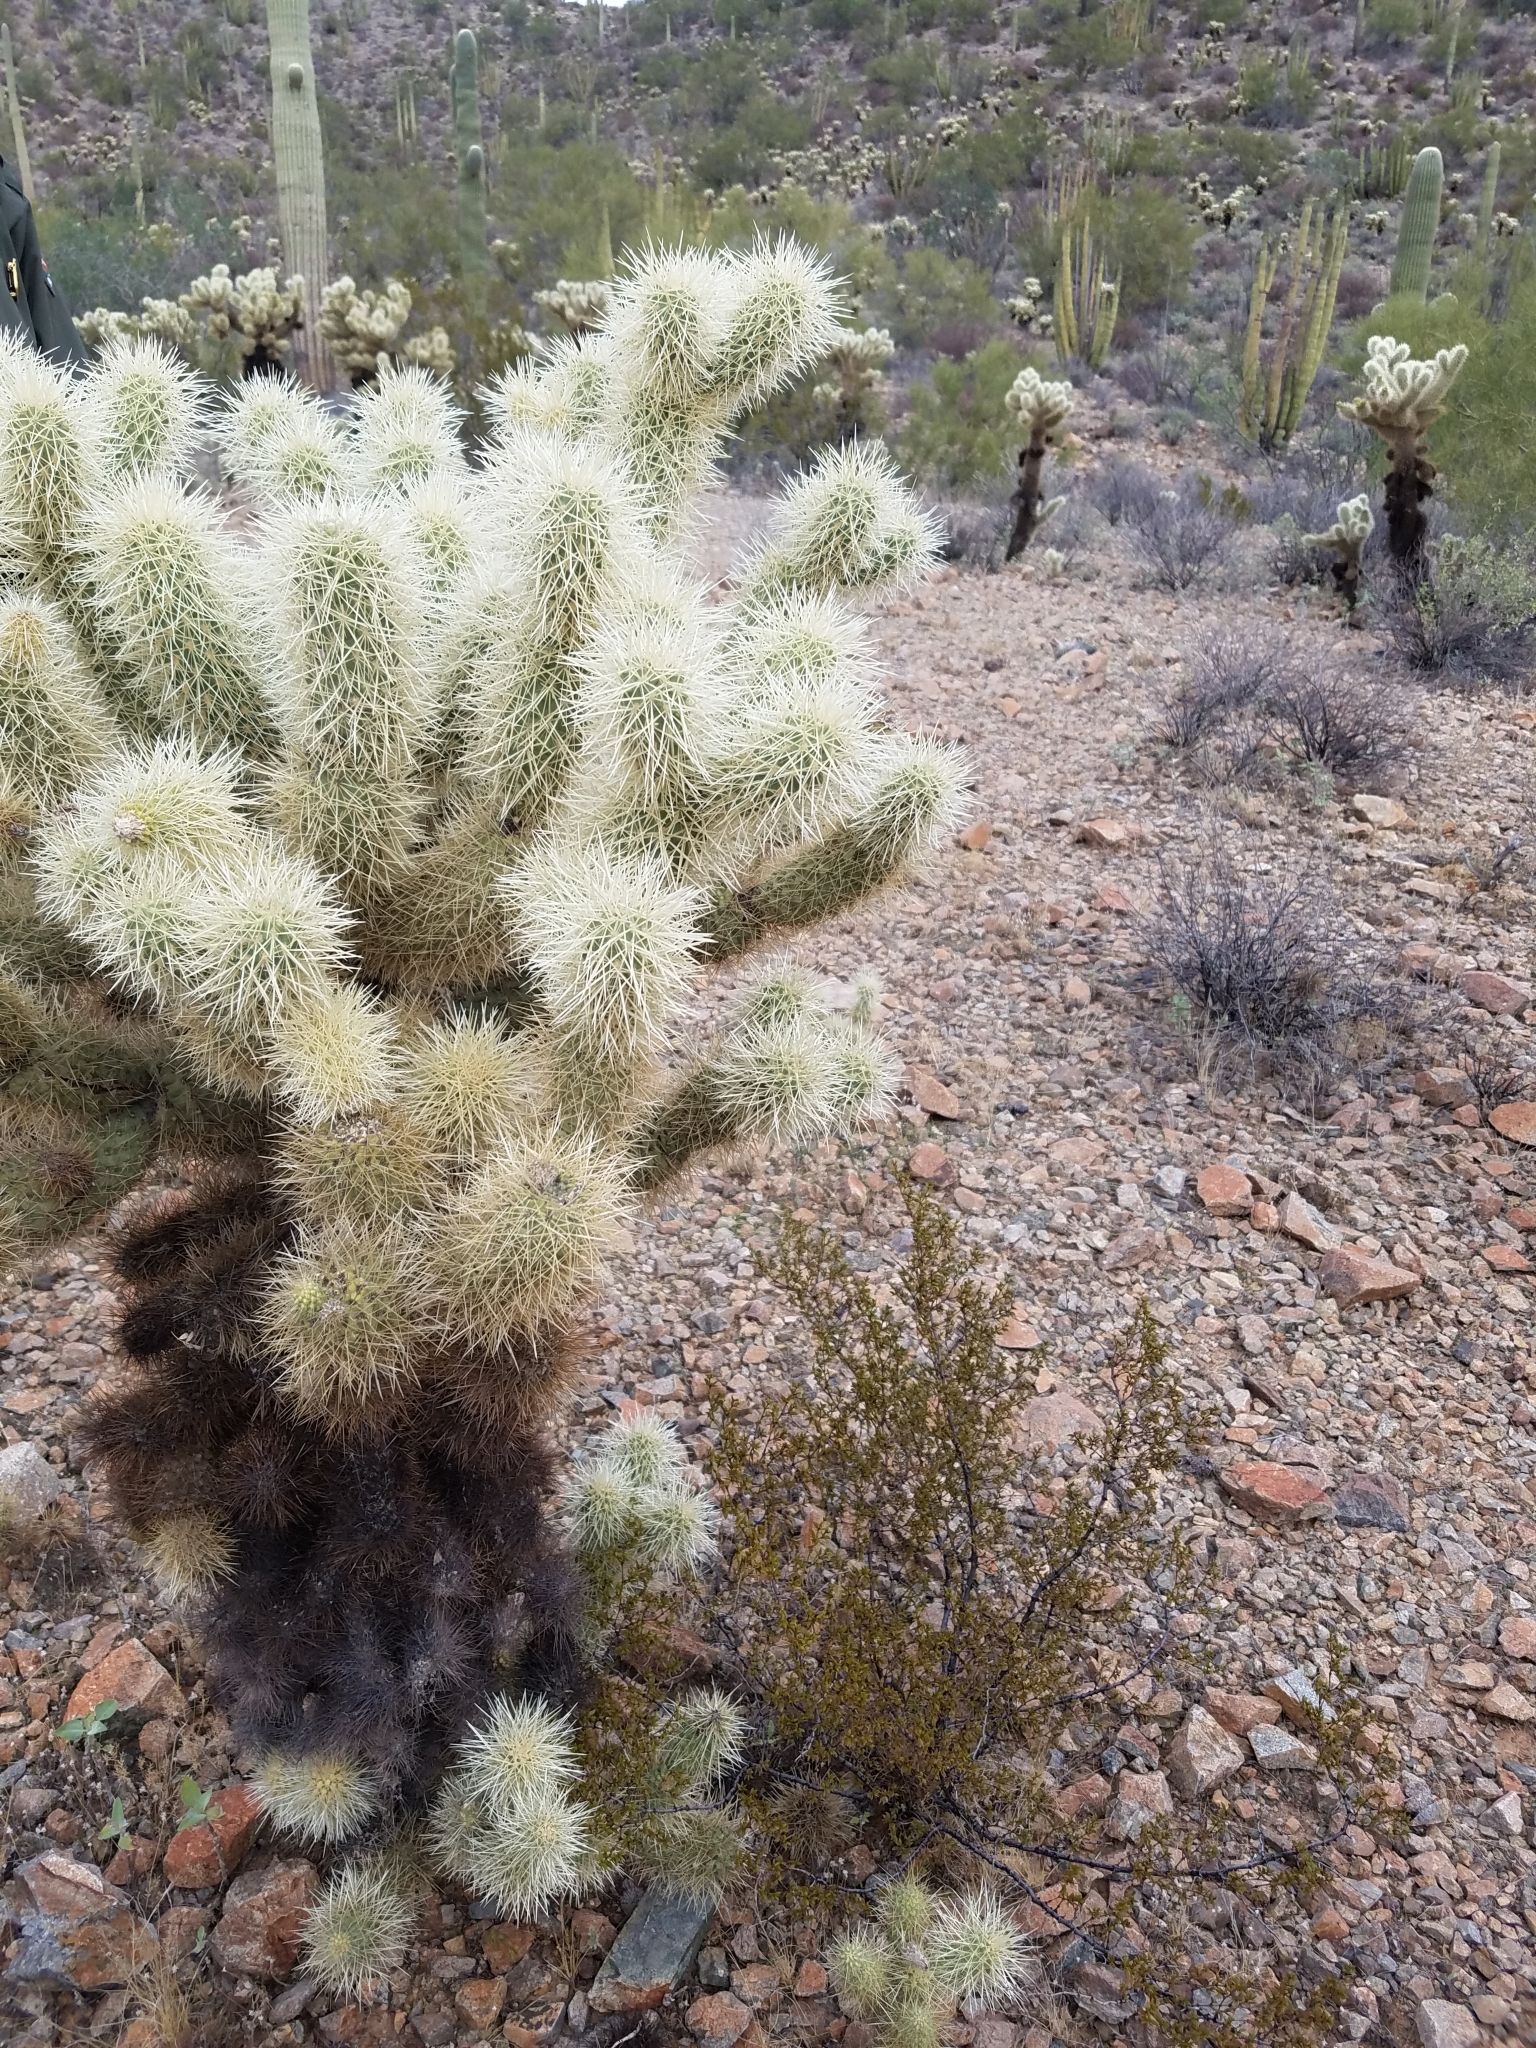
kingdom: Plantae
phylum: Tracheophyta
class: Magnoliopsida
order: Caryophyllales
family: Cactaceae
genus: Cylindropuntia
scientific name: Cylindropuntia fosbergii
